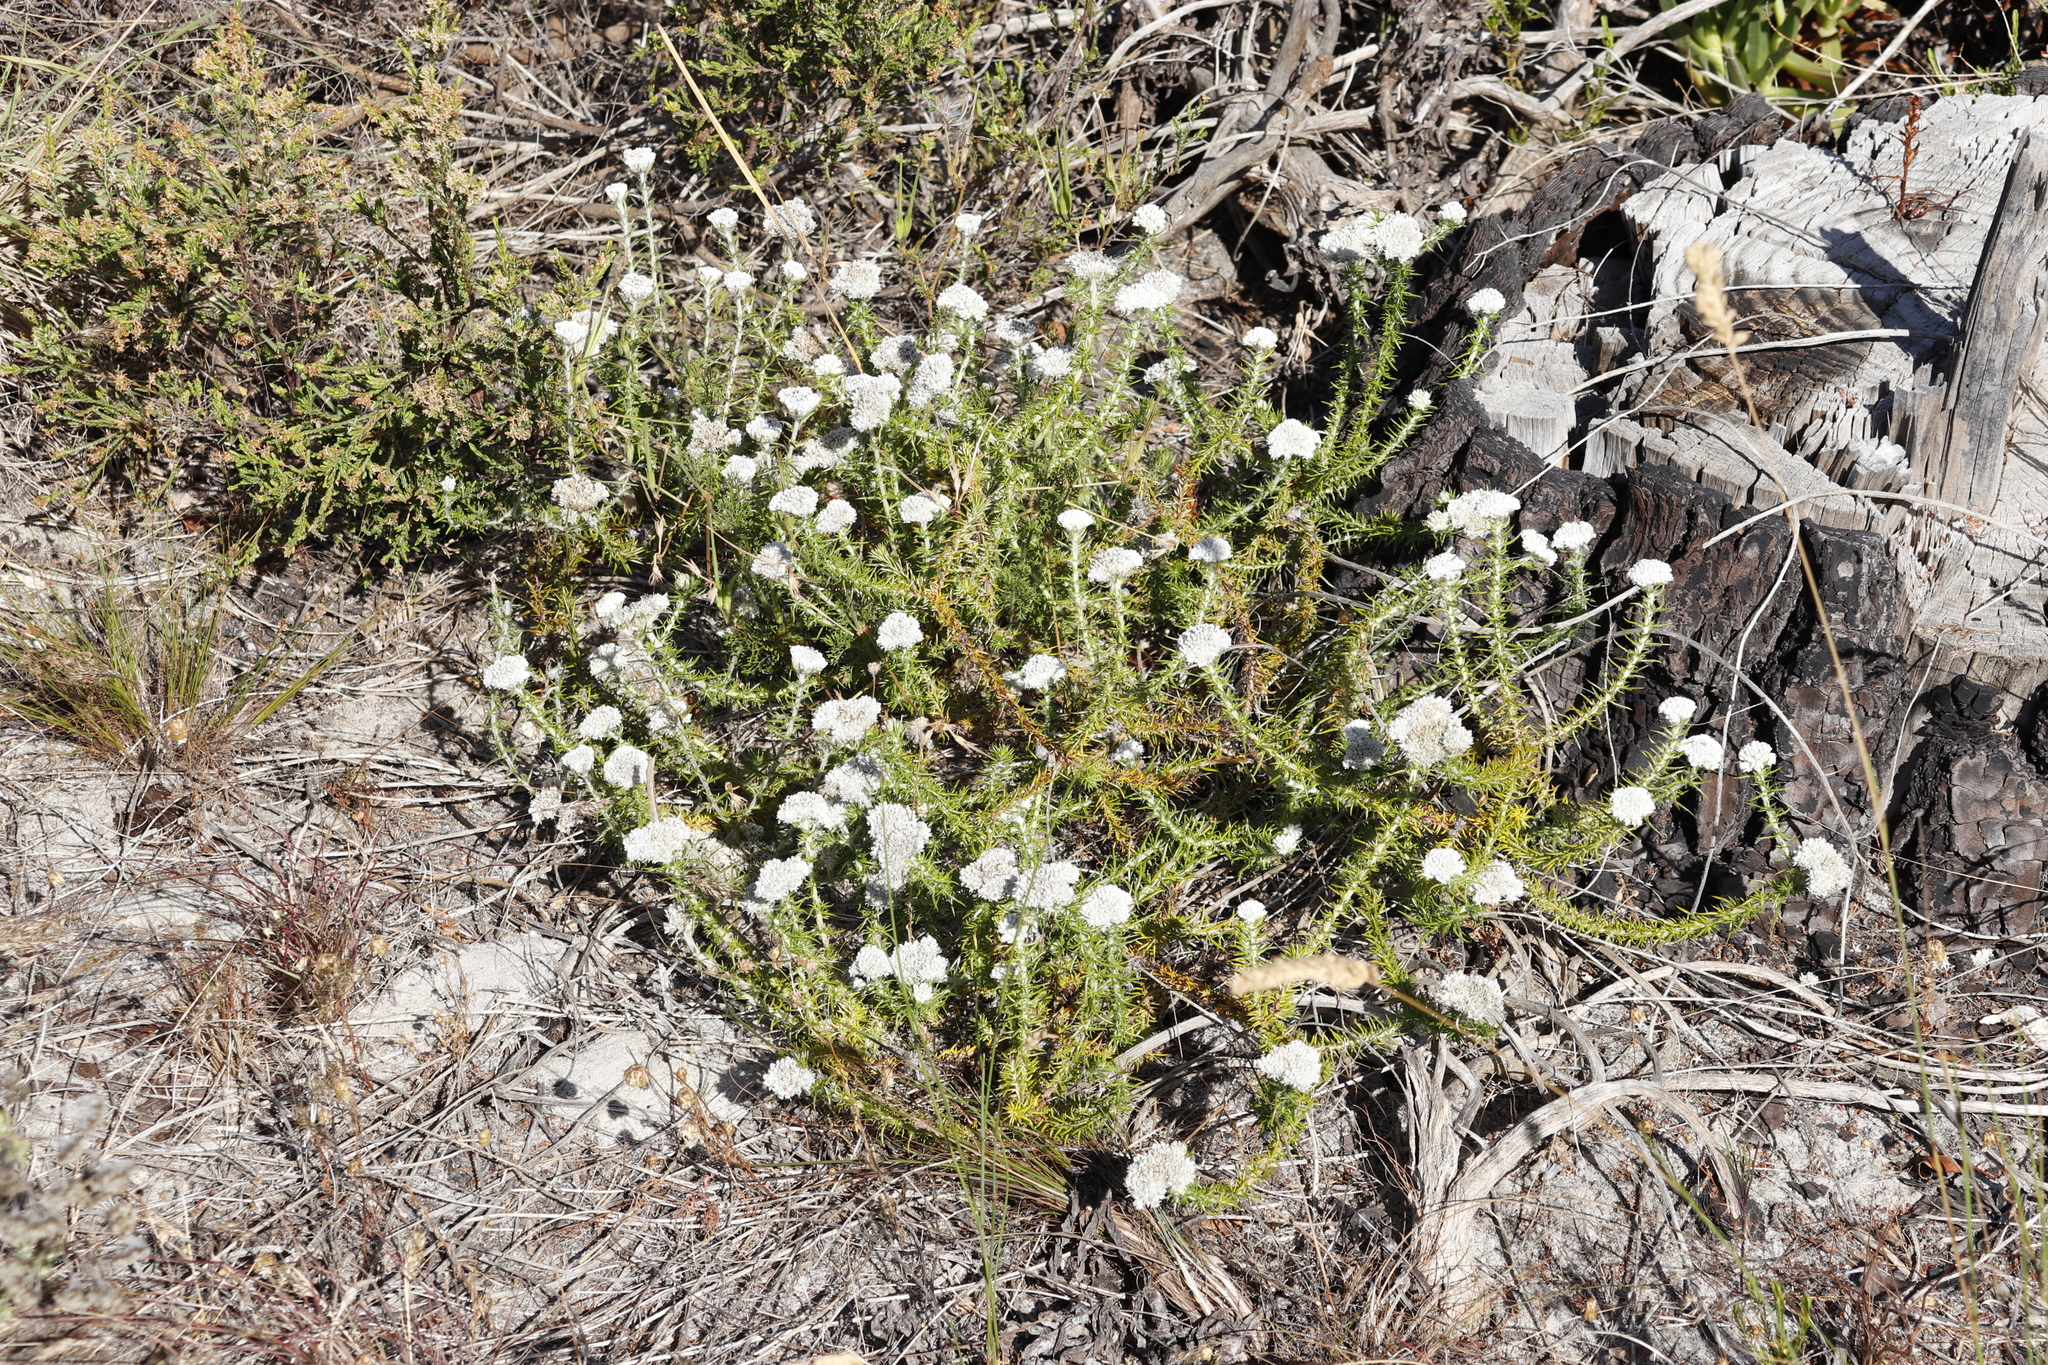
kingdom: Plantae
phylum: Tracheophyta
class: Magnoliopsida
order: Asterales
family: Asteraceae
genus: Metalasia
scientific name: Metalasia pulchella
